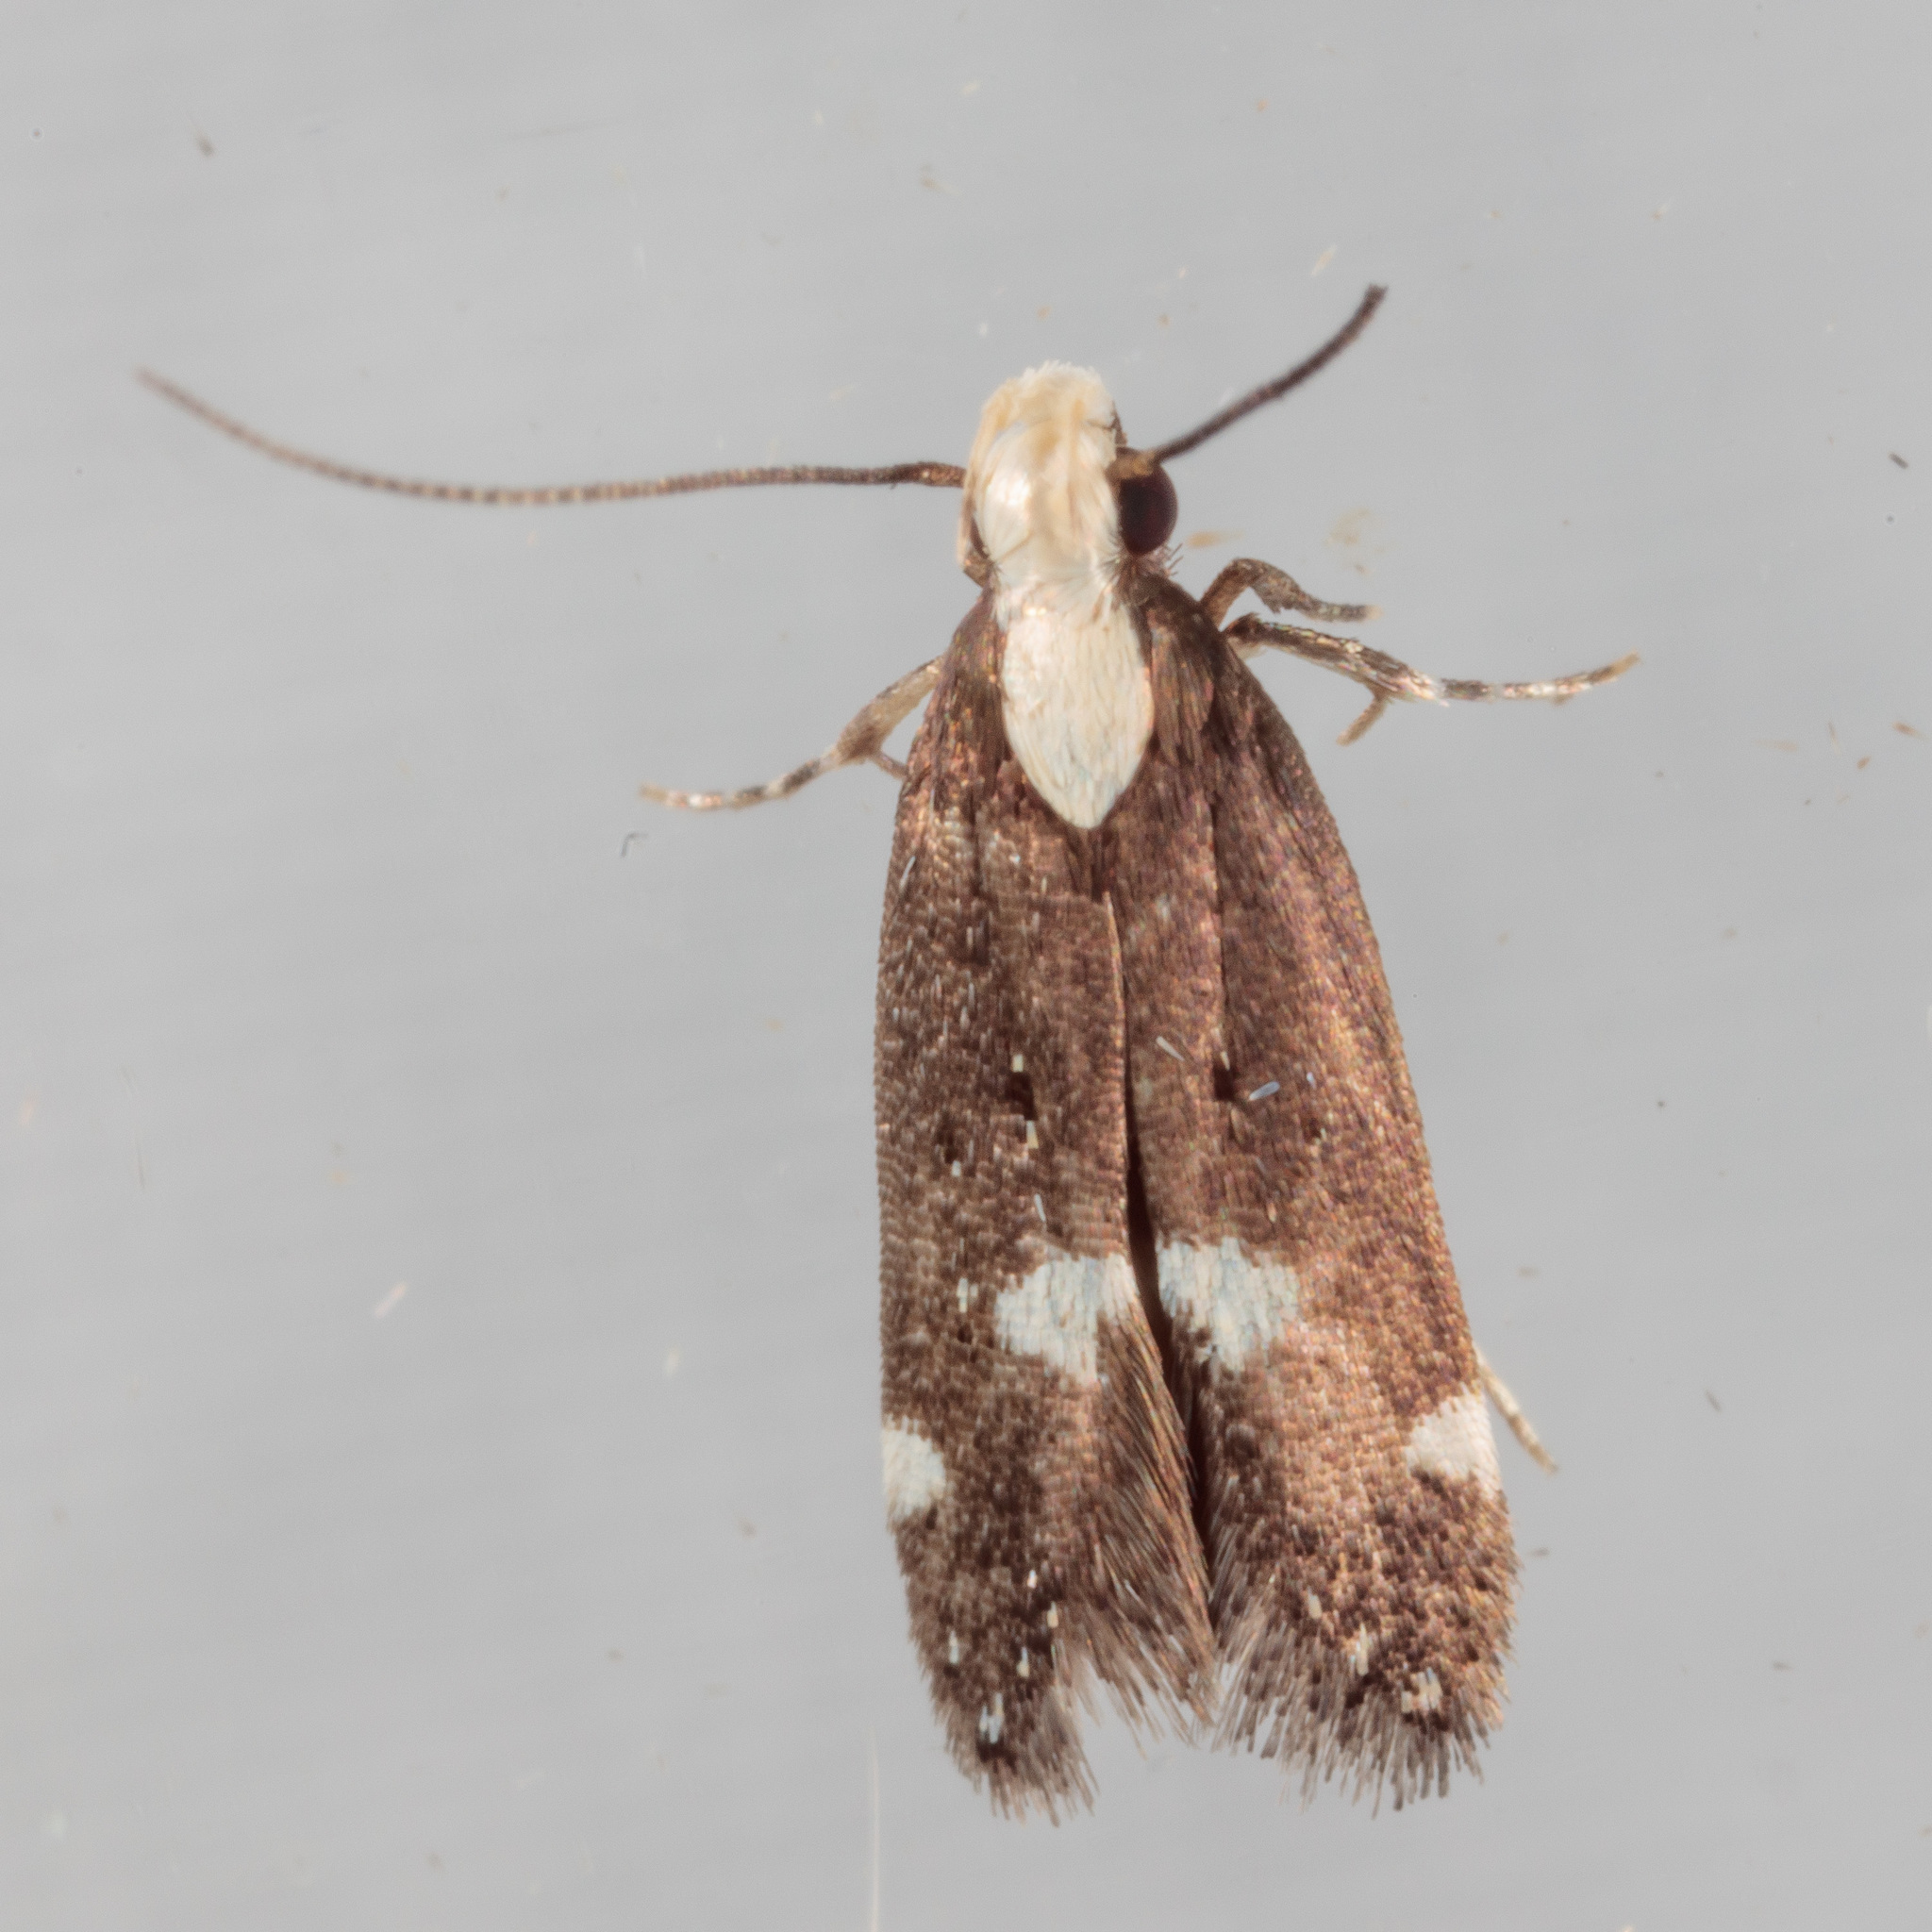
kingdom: Animalia
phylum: Arthropoda
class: Insecta
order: Lepidoptera
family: Gelechiidae
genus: Chionodes
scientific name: Chionodes mariona
